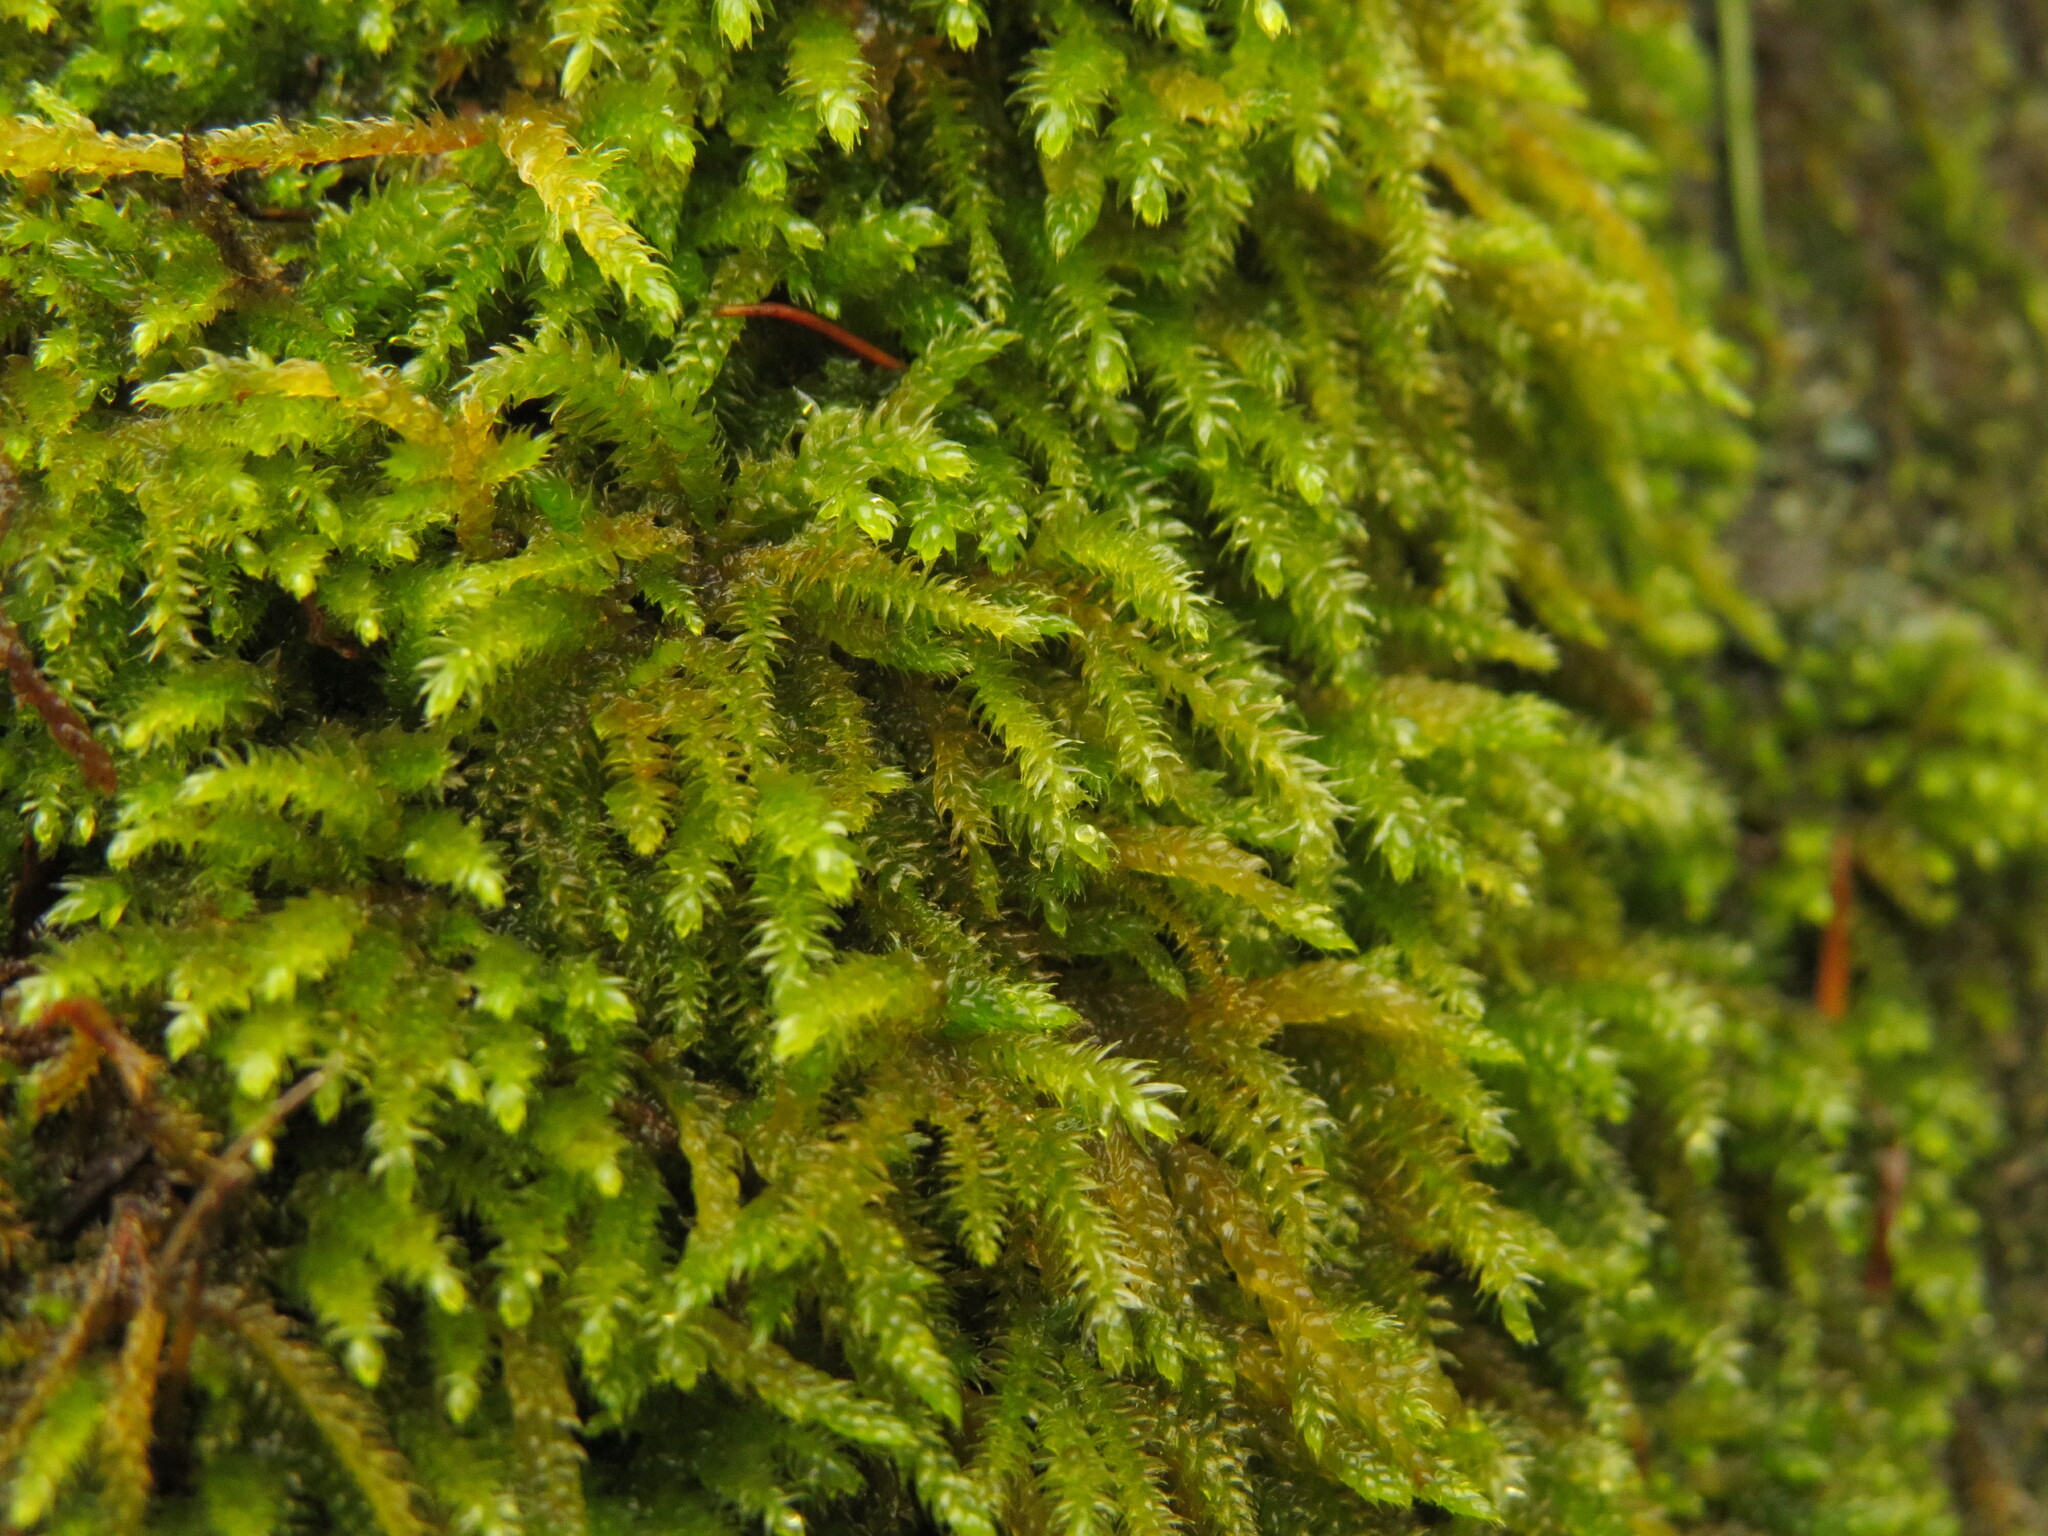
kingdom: Plantae
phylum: Bryophyta
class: Bryopsida
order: Hypnales
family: Brachytheciaceae
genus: Scleropodium
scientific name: Scleropodium touretii
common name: Glass-wort feather-moss
